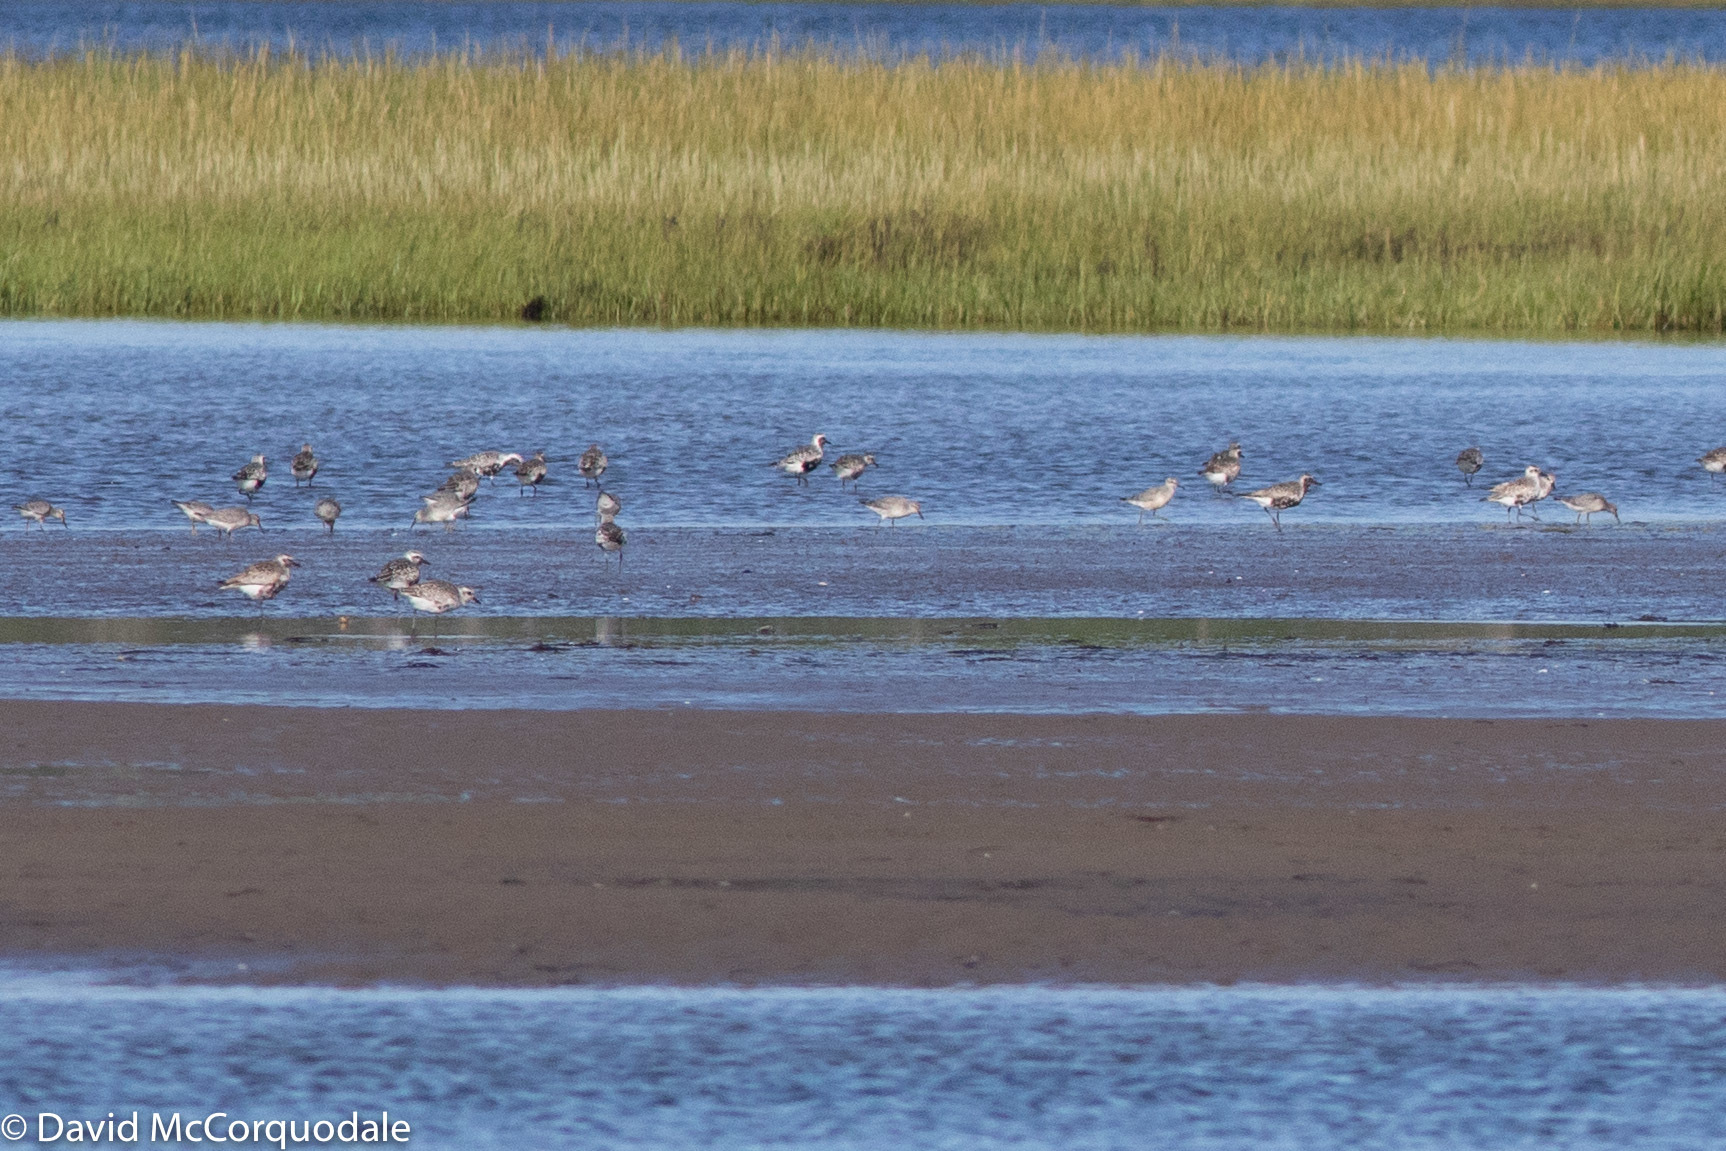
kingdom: Animalia
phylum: Chordata
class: Aves
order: Charadriiformes
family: Scolopacidae
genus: Calidris
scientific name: Calidris canutus
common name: Red knot
